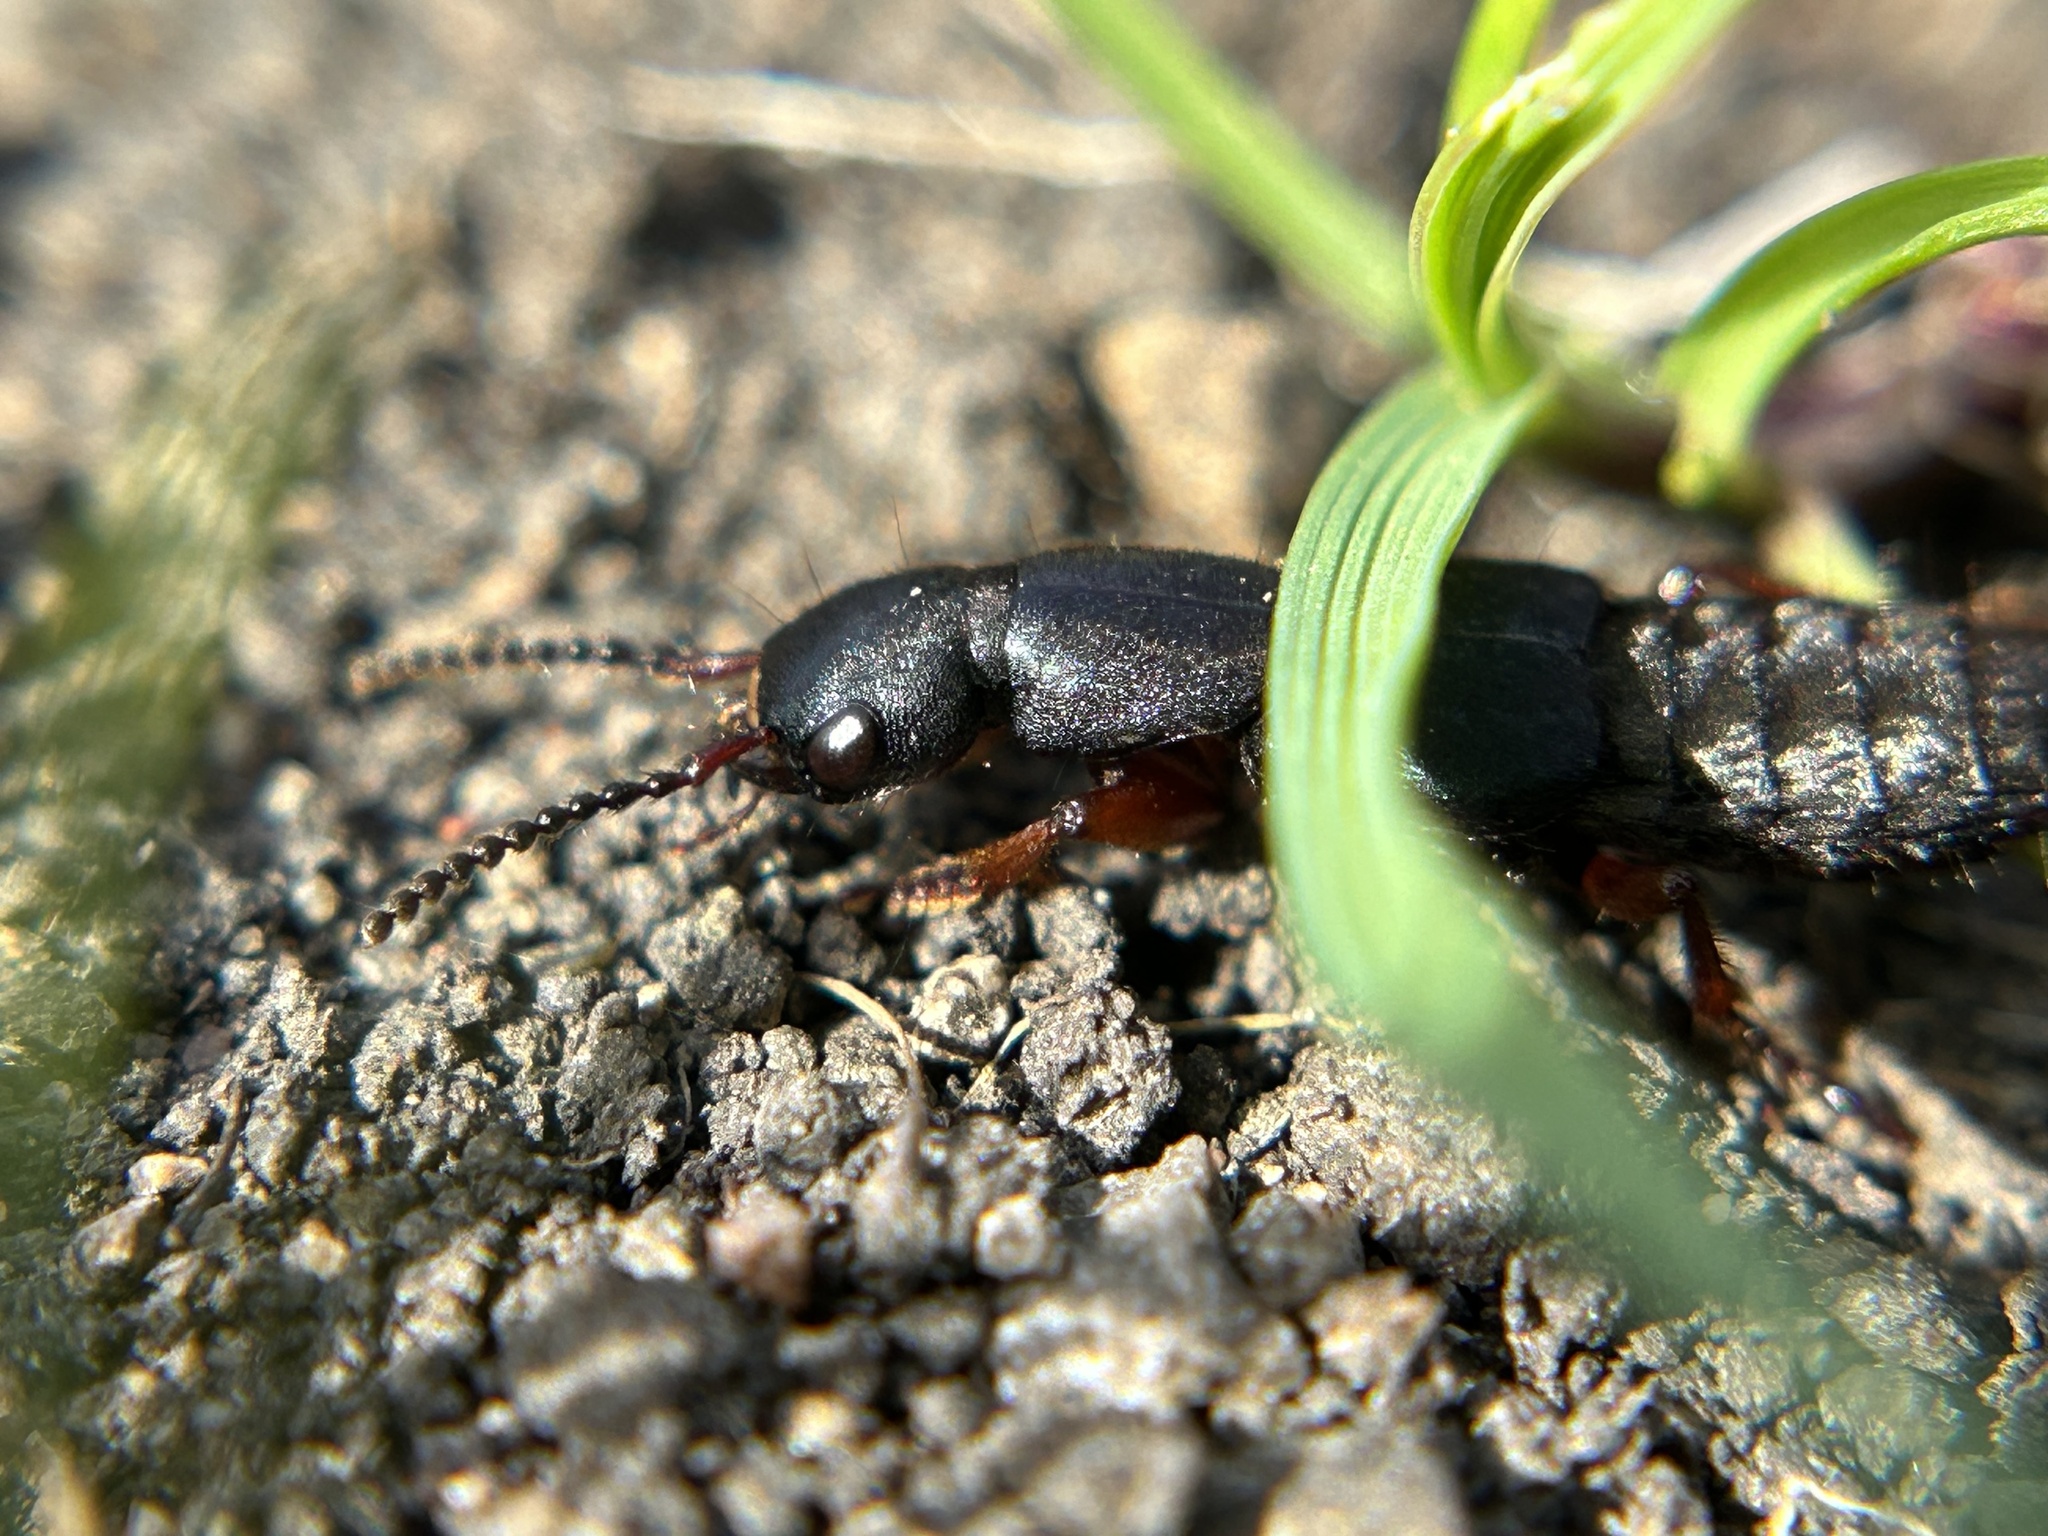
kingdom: Animalia
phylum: Arthropoda
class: Insecta
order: Coleoptera
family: Staphylinidae
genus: Dinothenarus
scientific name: Dinothenarus saphyrinus
